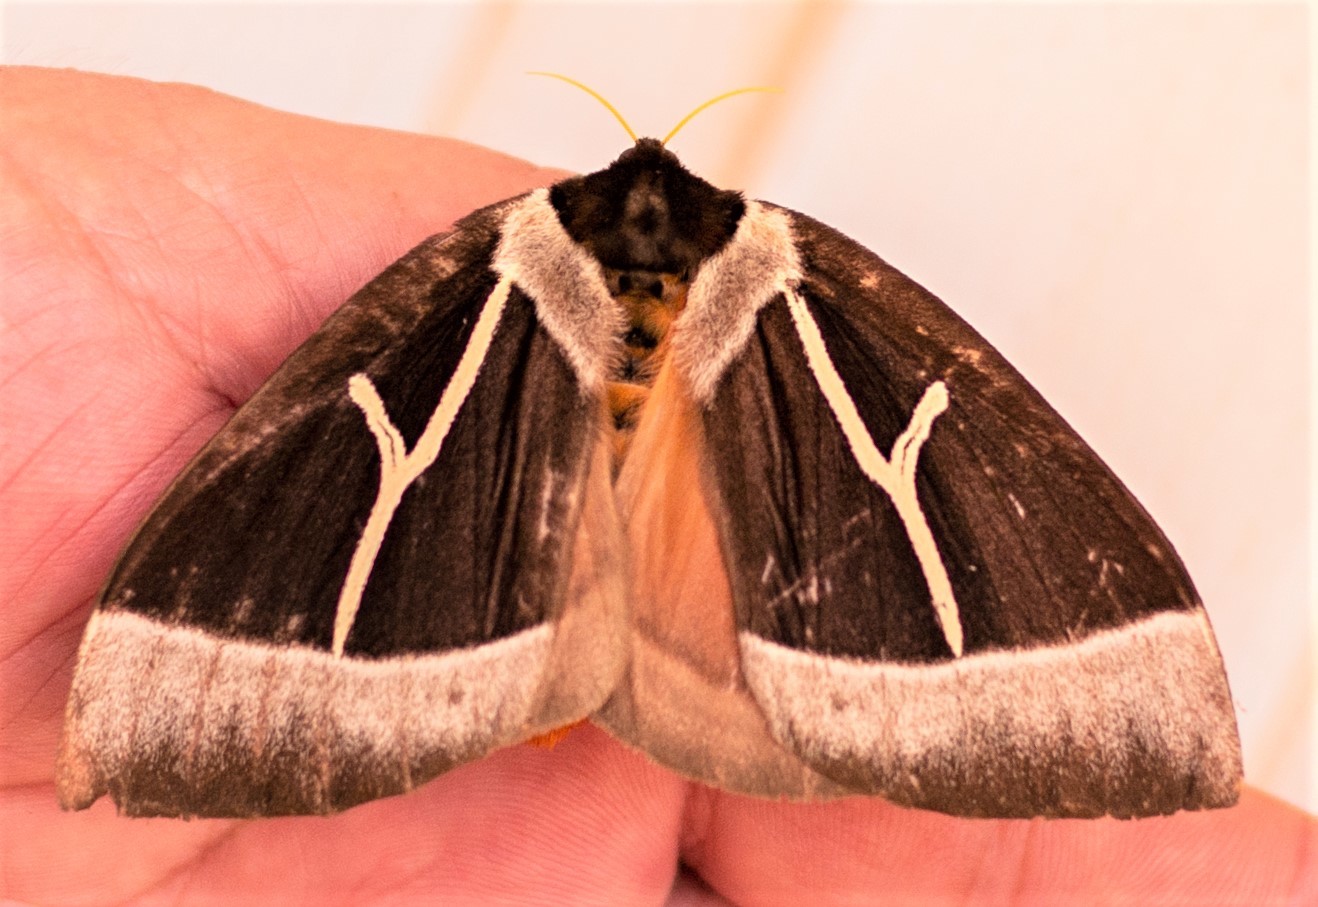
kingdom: Animalia
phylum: Arthropoda
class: Insecta
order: Lepidoptera
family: Saturniidae
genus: Dirphia
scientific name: Dirphia tarquinia
